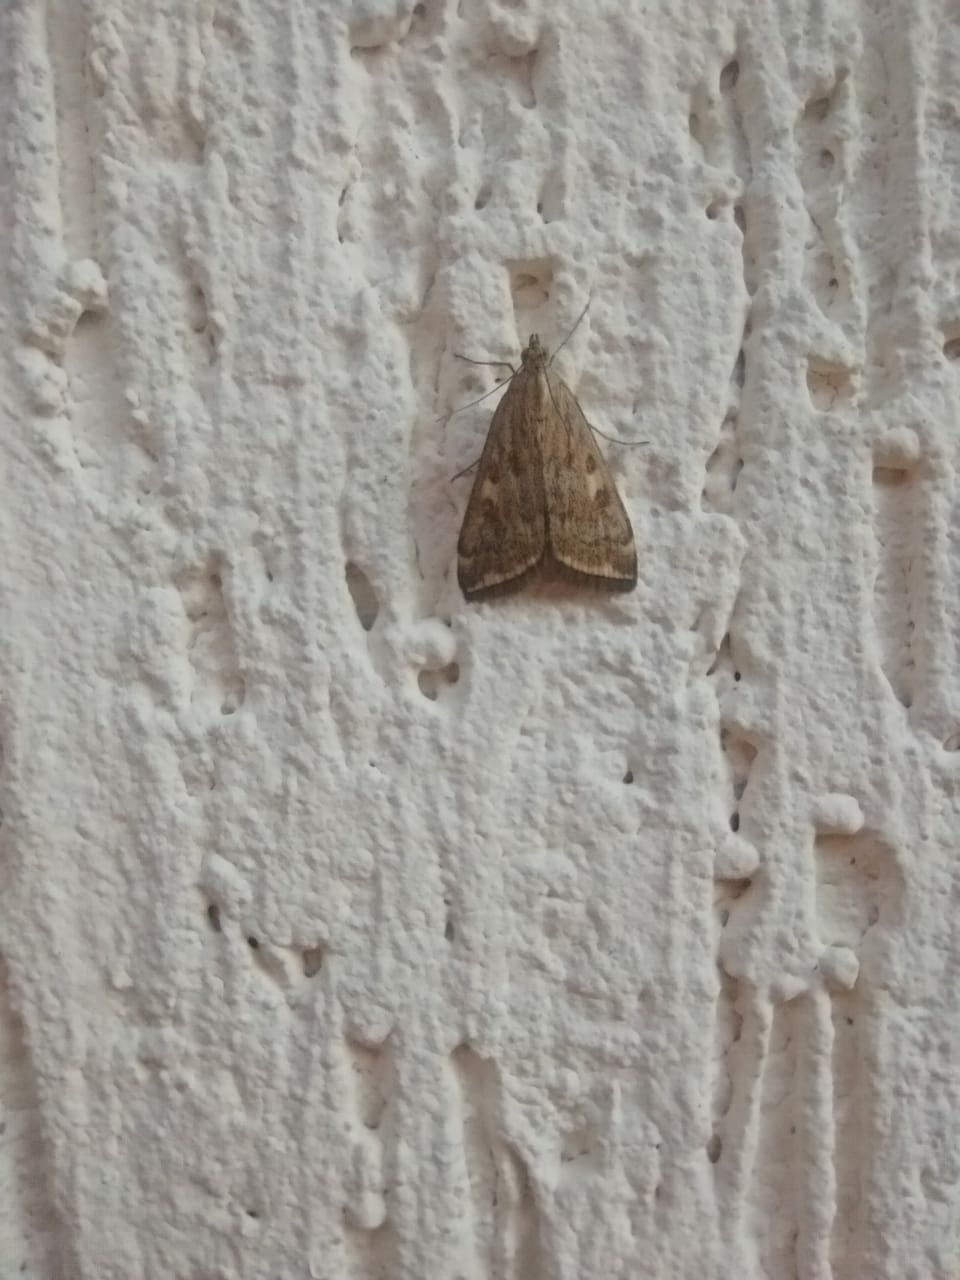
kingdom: Animalia
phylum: Arthropoda
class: Insecta
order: Lepidoptera
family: Crambidae
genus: Loxostege
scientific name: Loxostege sticticalis
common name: Crambid moth
